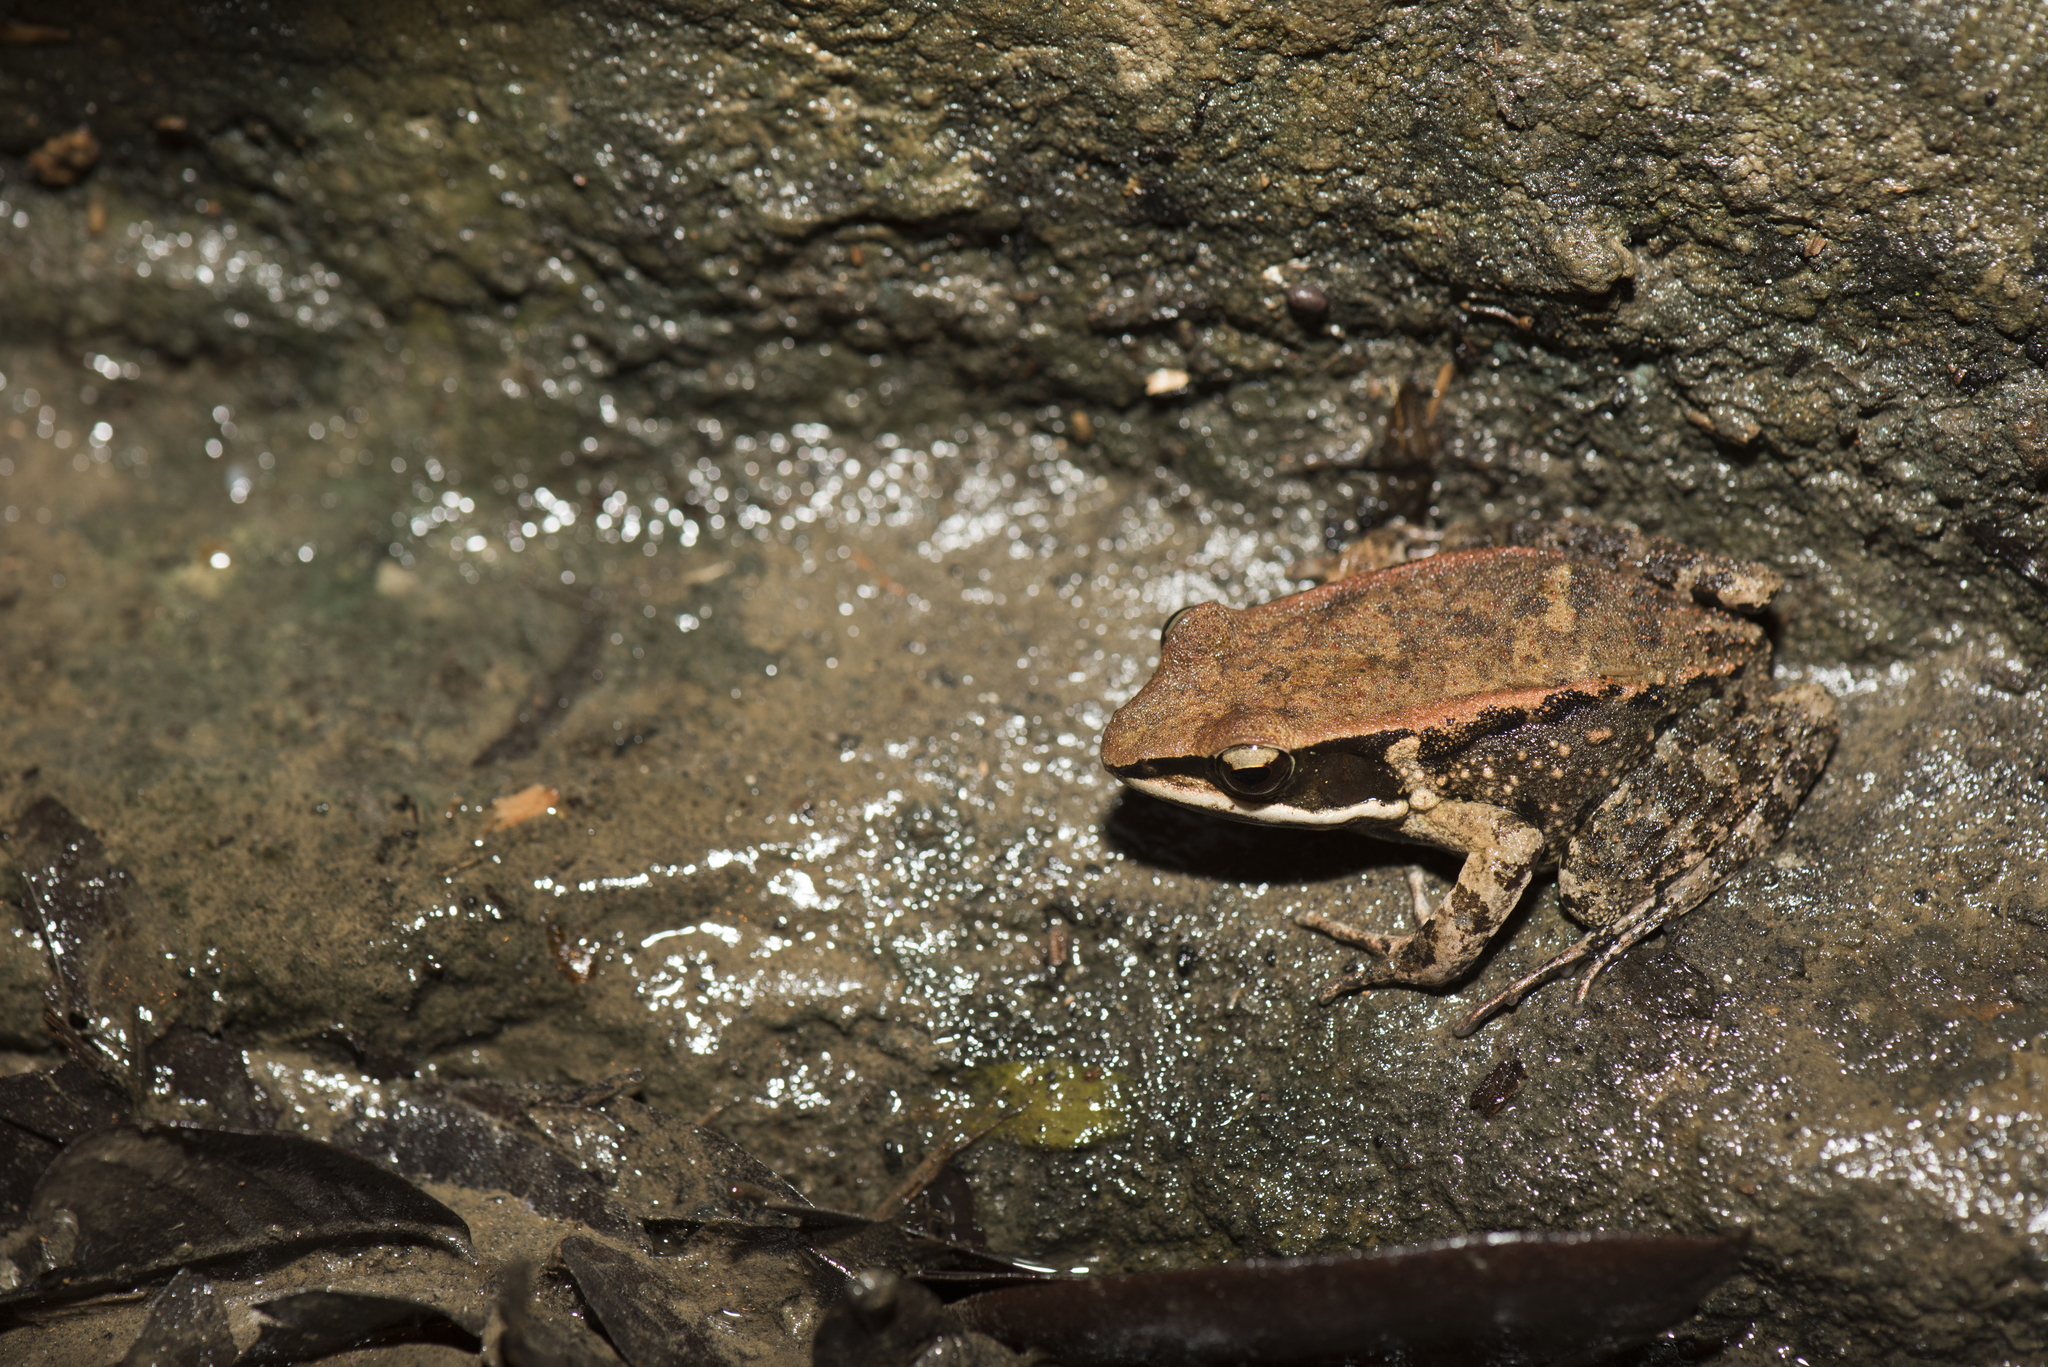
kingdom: Animalia
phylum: Chordata
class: Amphibia
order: Anura
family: Ranidae
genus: Hylarana
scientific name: Hylarana latouchii
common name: Broad-folded frog
